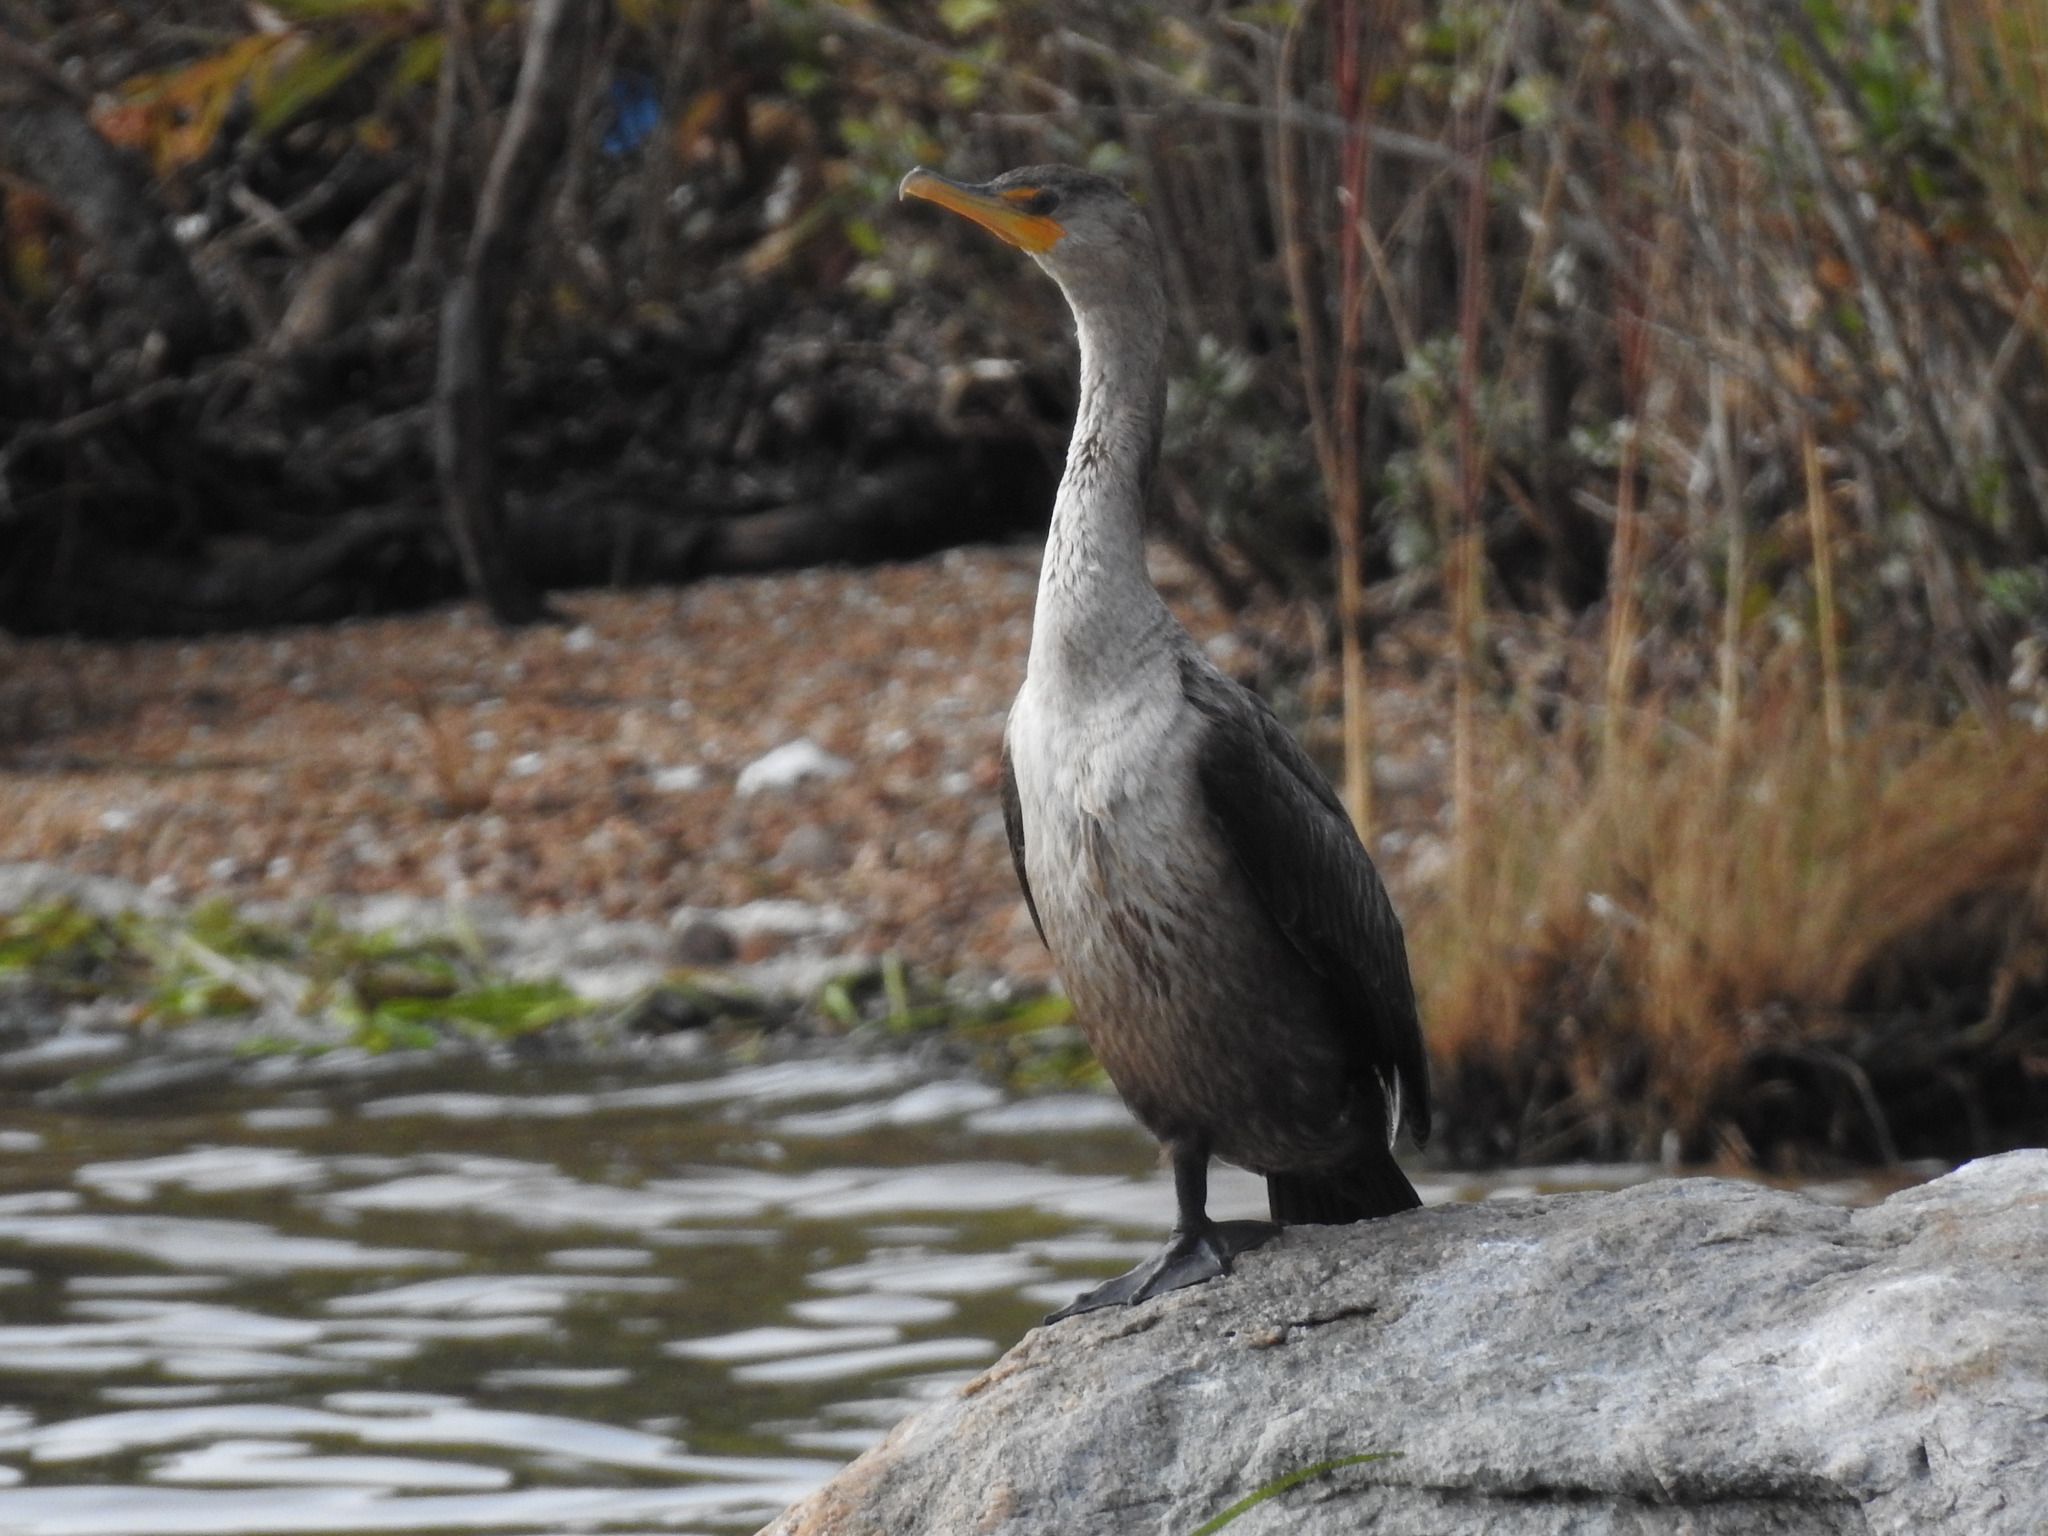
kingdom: Animalia
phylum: Chordata
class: Aves
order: Suliformes
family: Phalacrocoracidae
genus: Phalacrocorax
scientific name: Phalacrocorax auritus
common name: Double-crested cormorant
